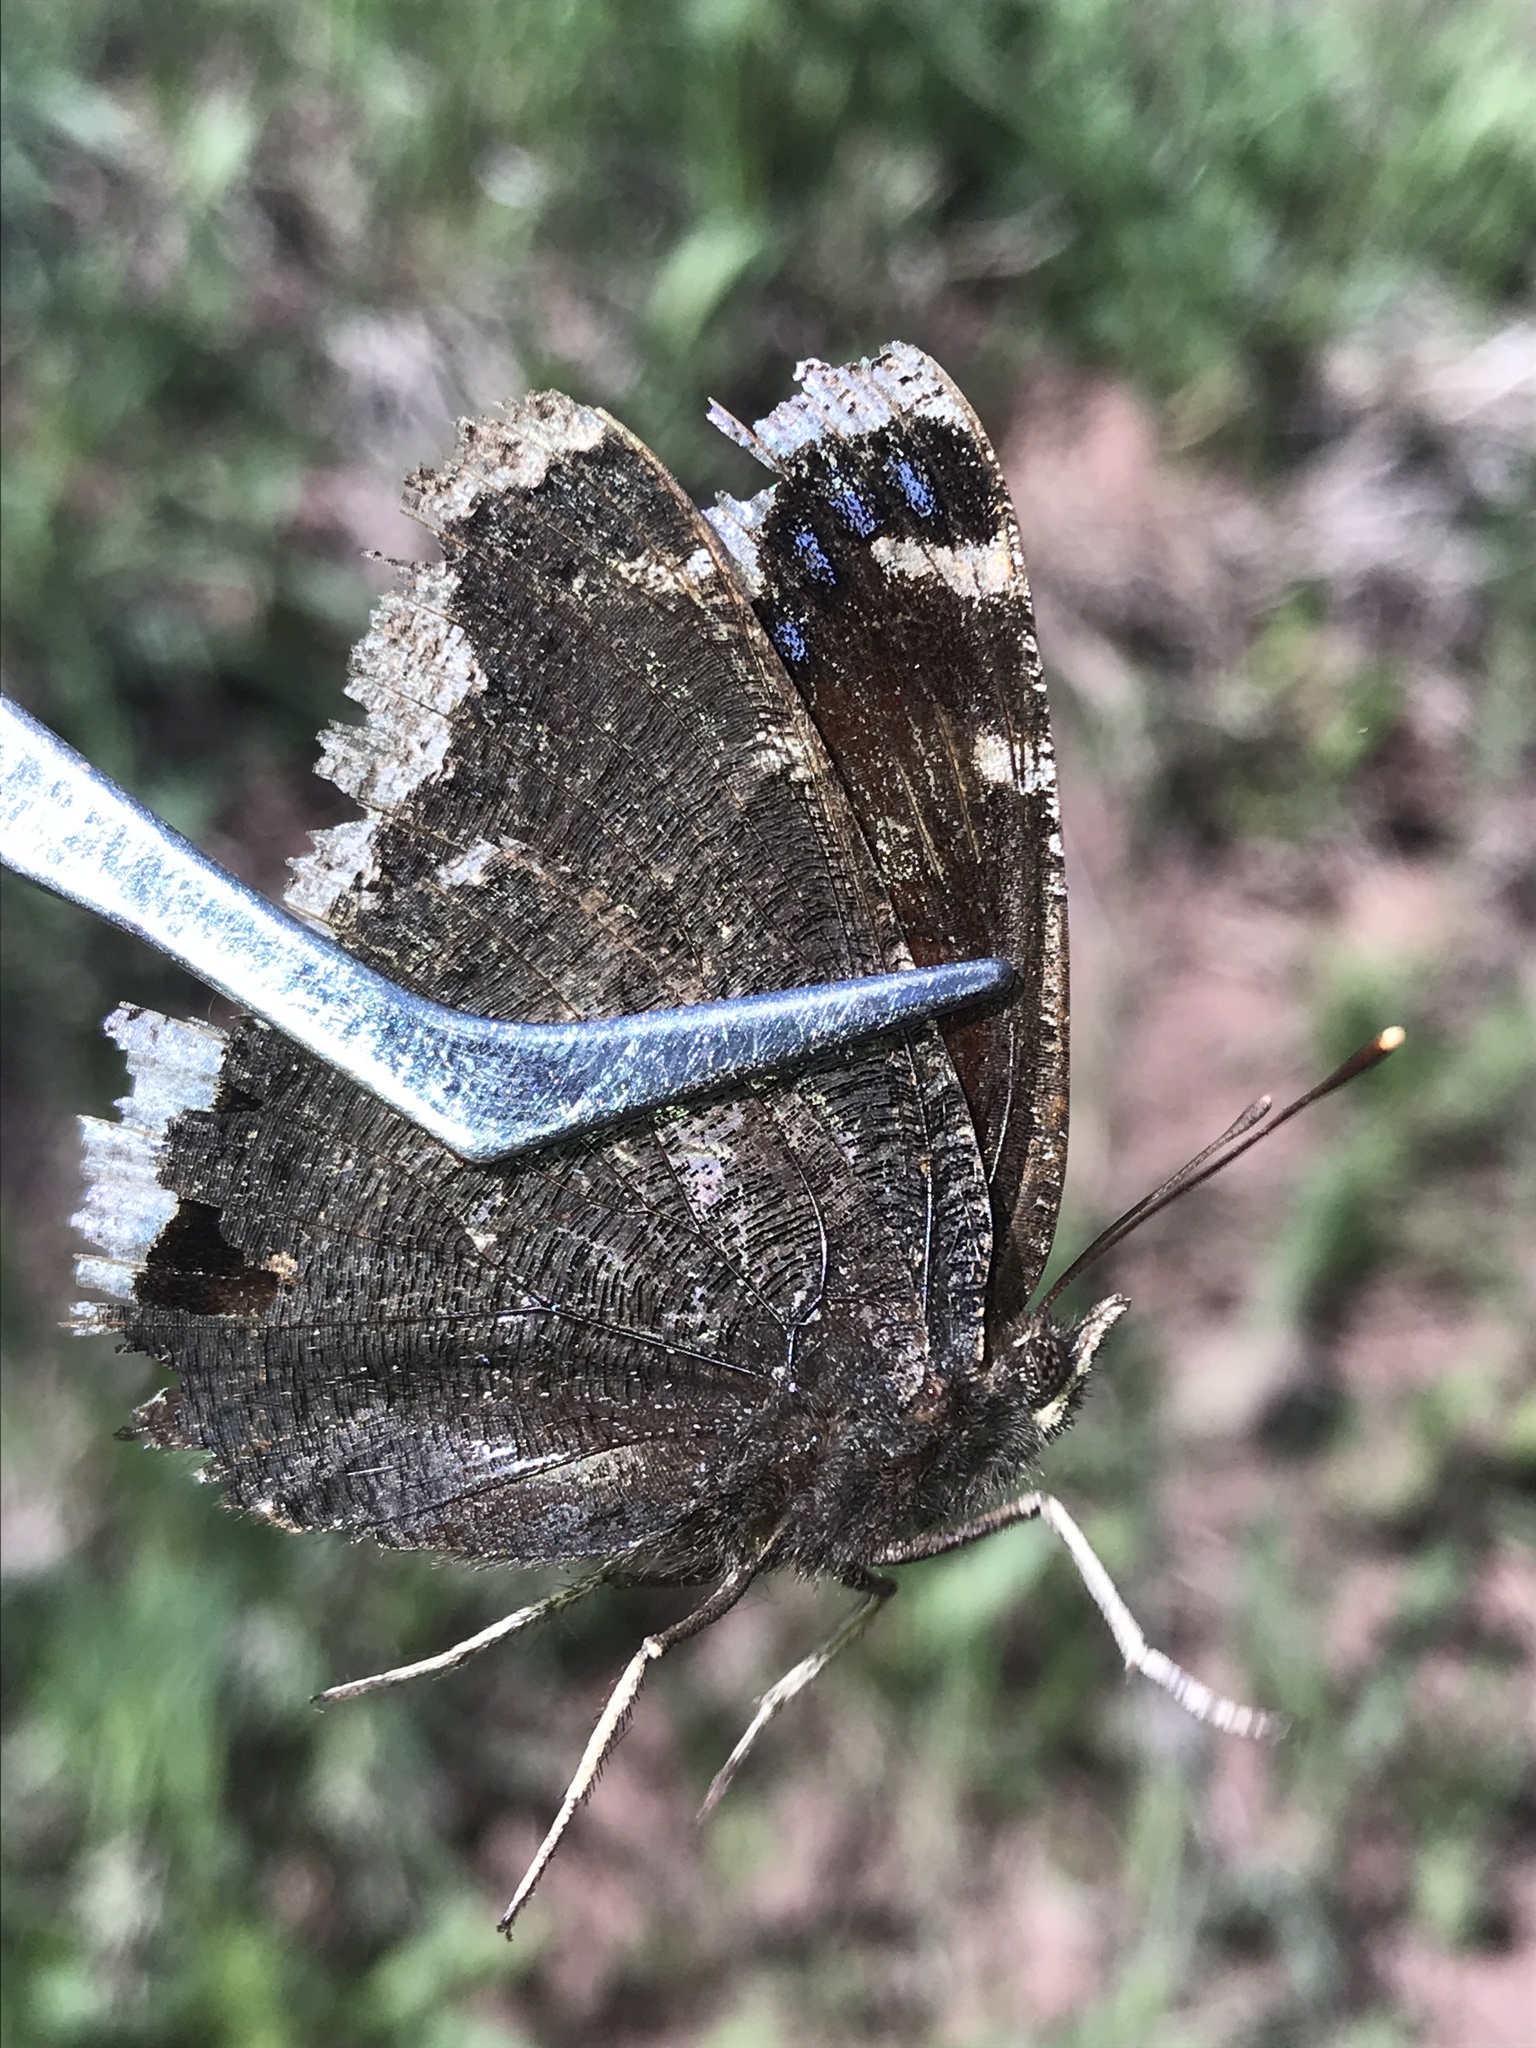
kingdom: Animalia
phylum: Arthropoda
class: Insecta
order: Lepidoptera
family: Nymphalidae
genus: Nymphalis
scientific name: Nymphalis antiopa
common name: Camberwell beauty
